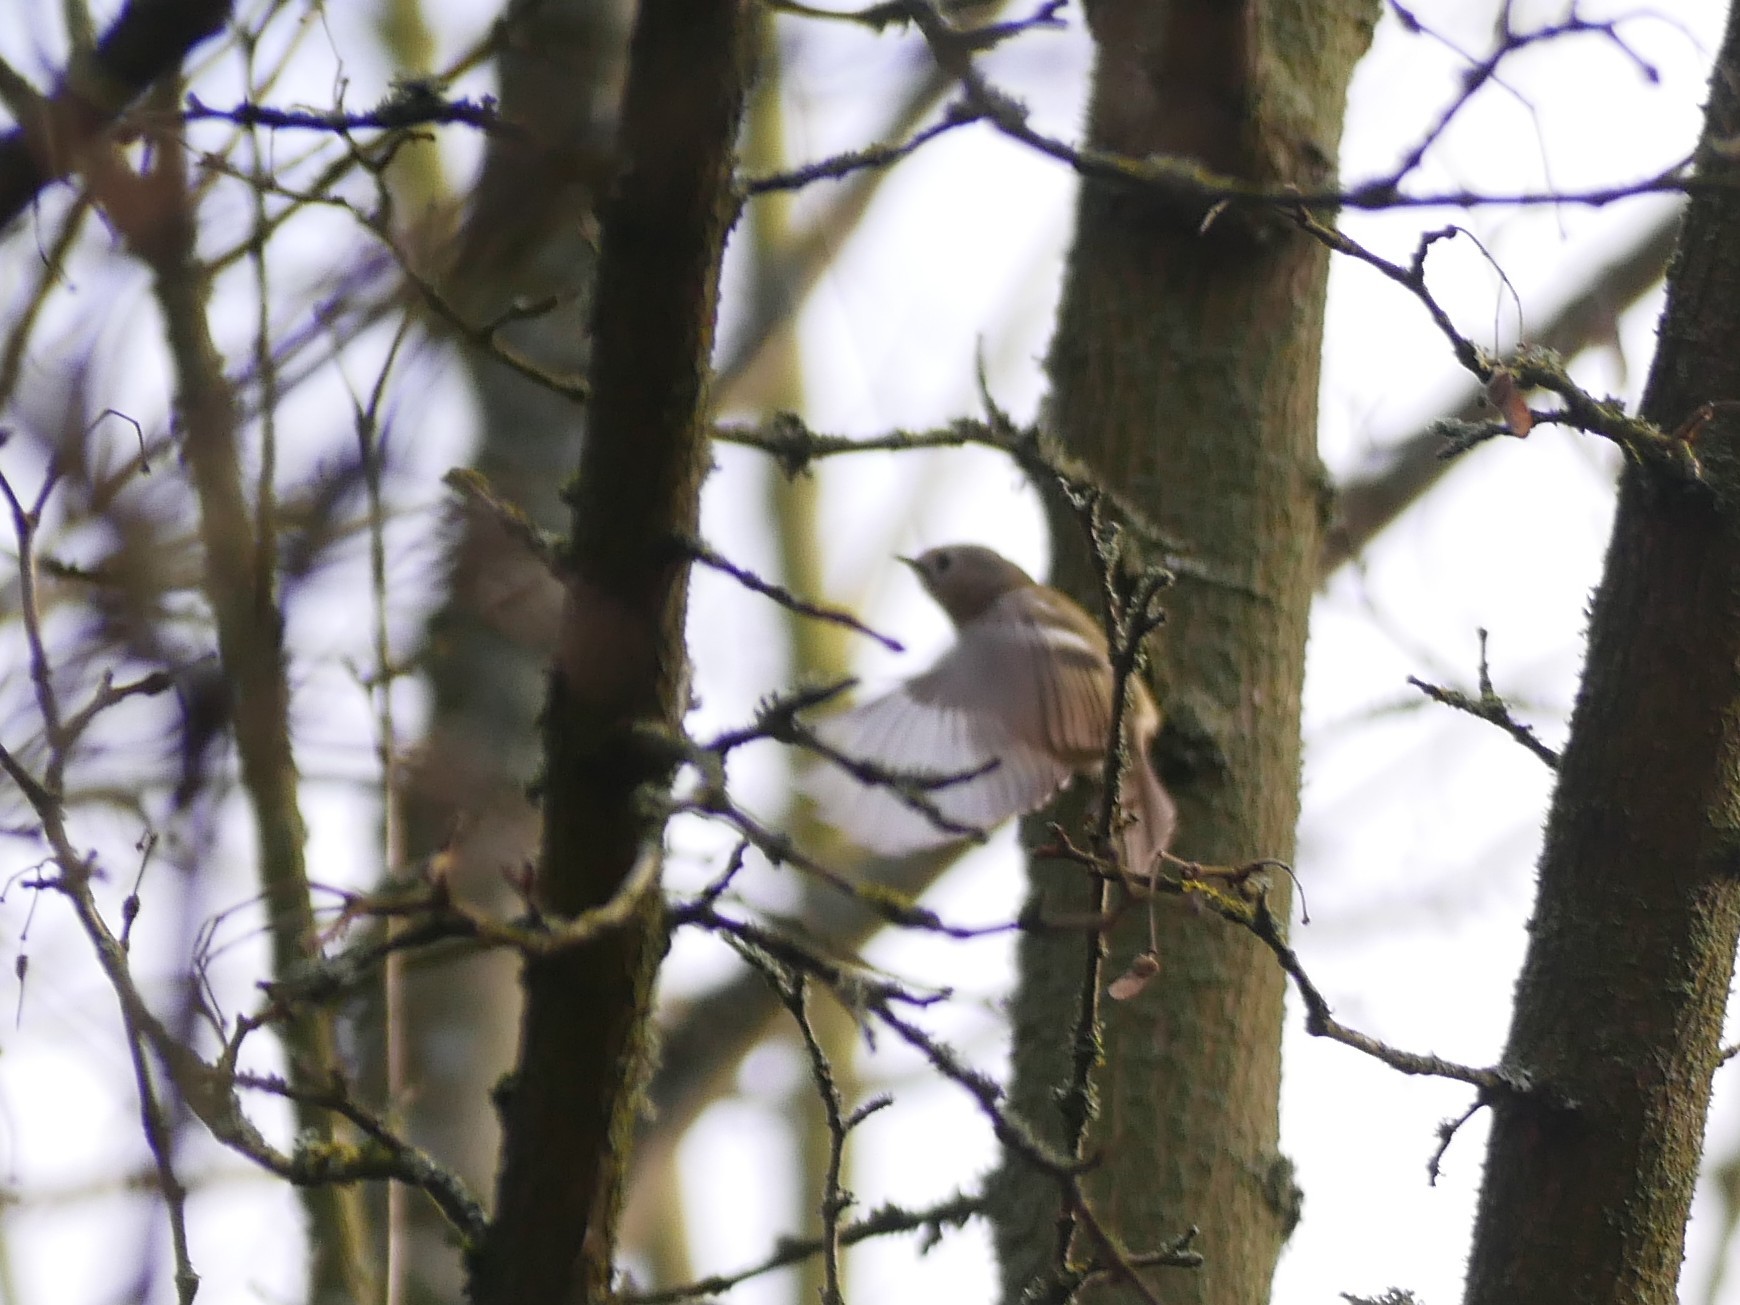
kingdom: Animalia
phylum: Chordata
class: Aves
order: Passeriformes
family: Regulidae
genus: Regulus
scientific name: Regulus regulus
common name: Goldcrest
